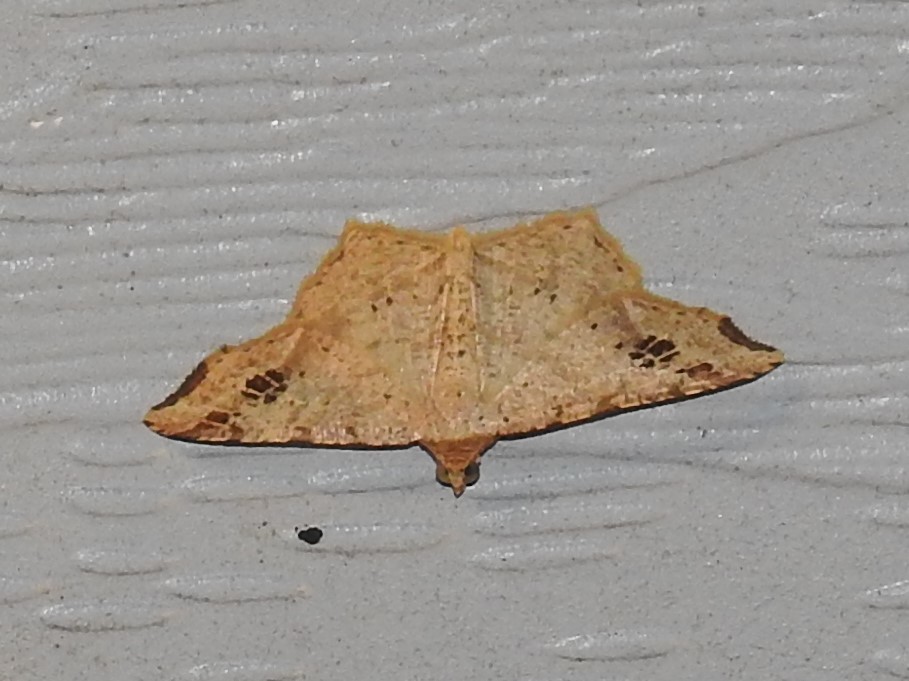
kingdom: Animalia
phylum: Arthropoda
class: Insecta
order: Lepidoptera
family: Geometridae
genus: Macaria
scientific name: Macaria aemulataria
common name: Common angle
